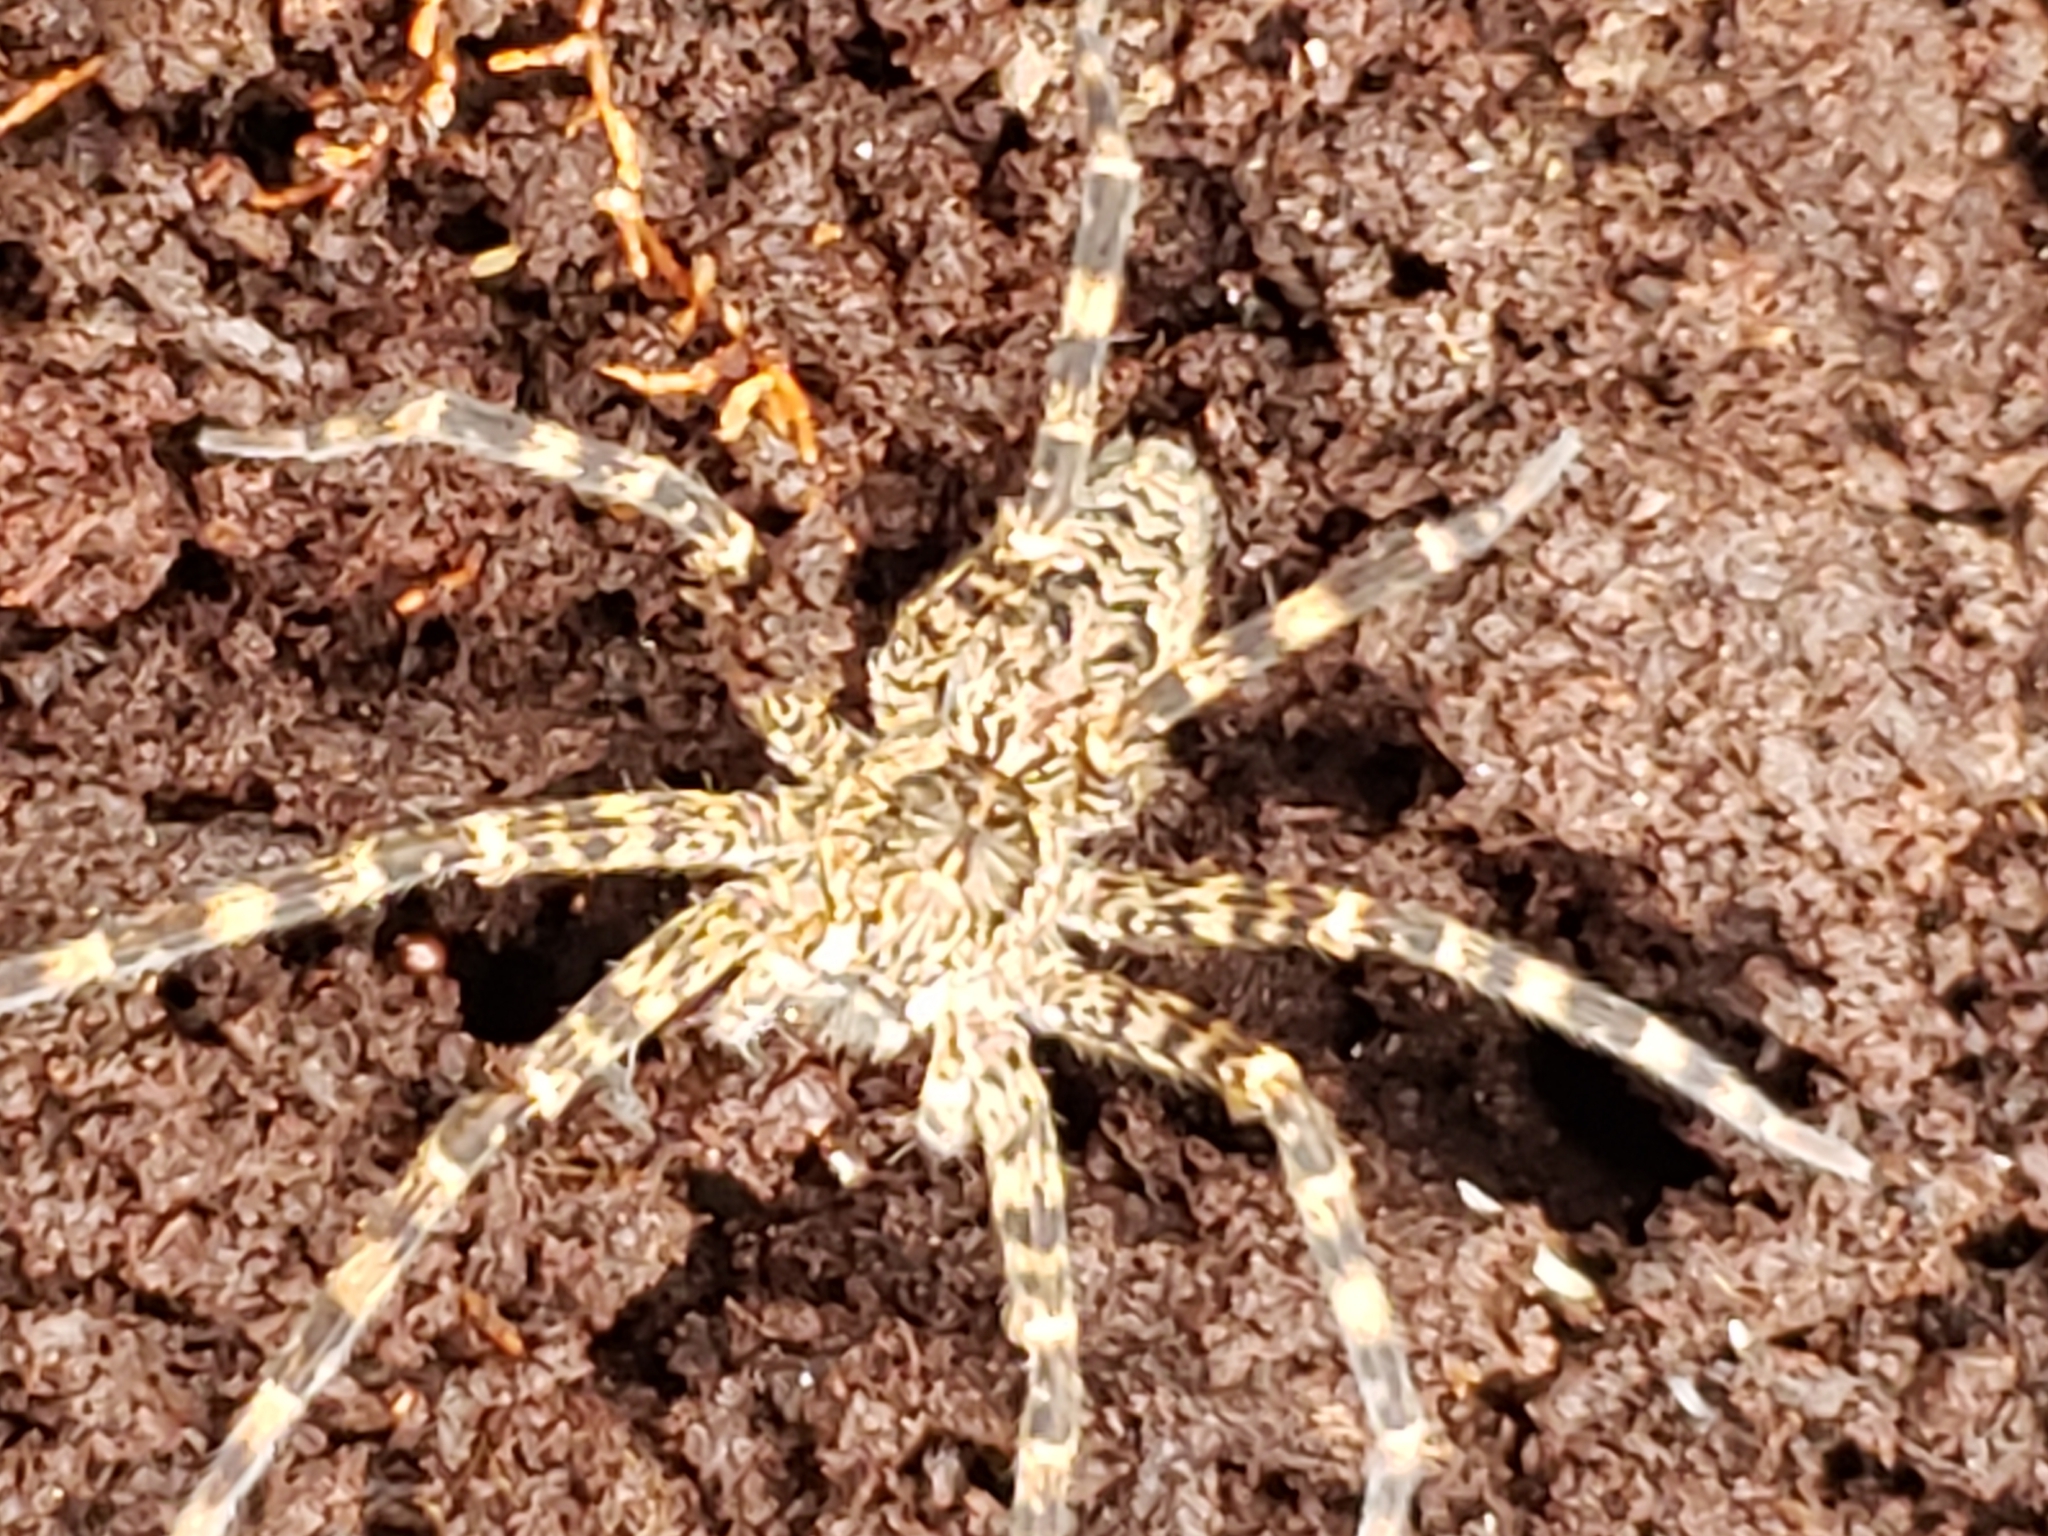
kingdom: Animalia
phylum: Arthropoda
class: Arachnida
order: Araneae
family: Pisauridae
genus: Dolomedes
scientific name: Dolomedes tenebrosus
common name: Dark fishing spider
